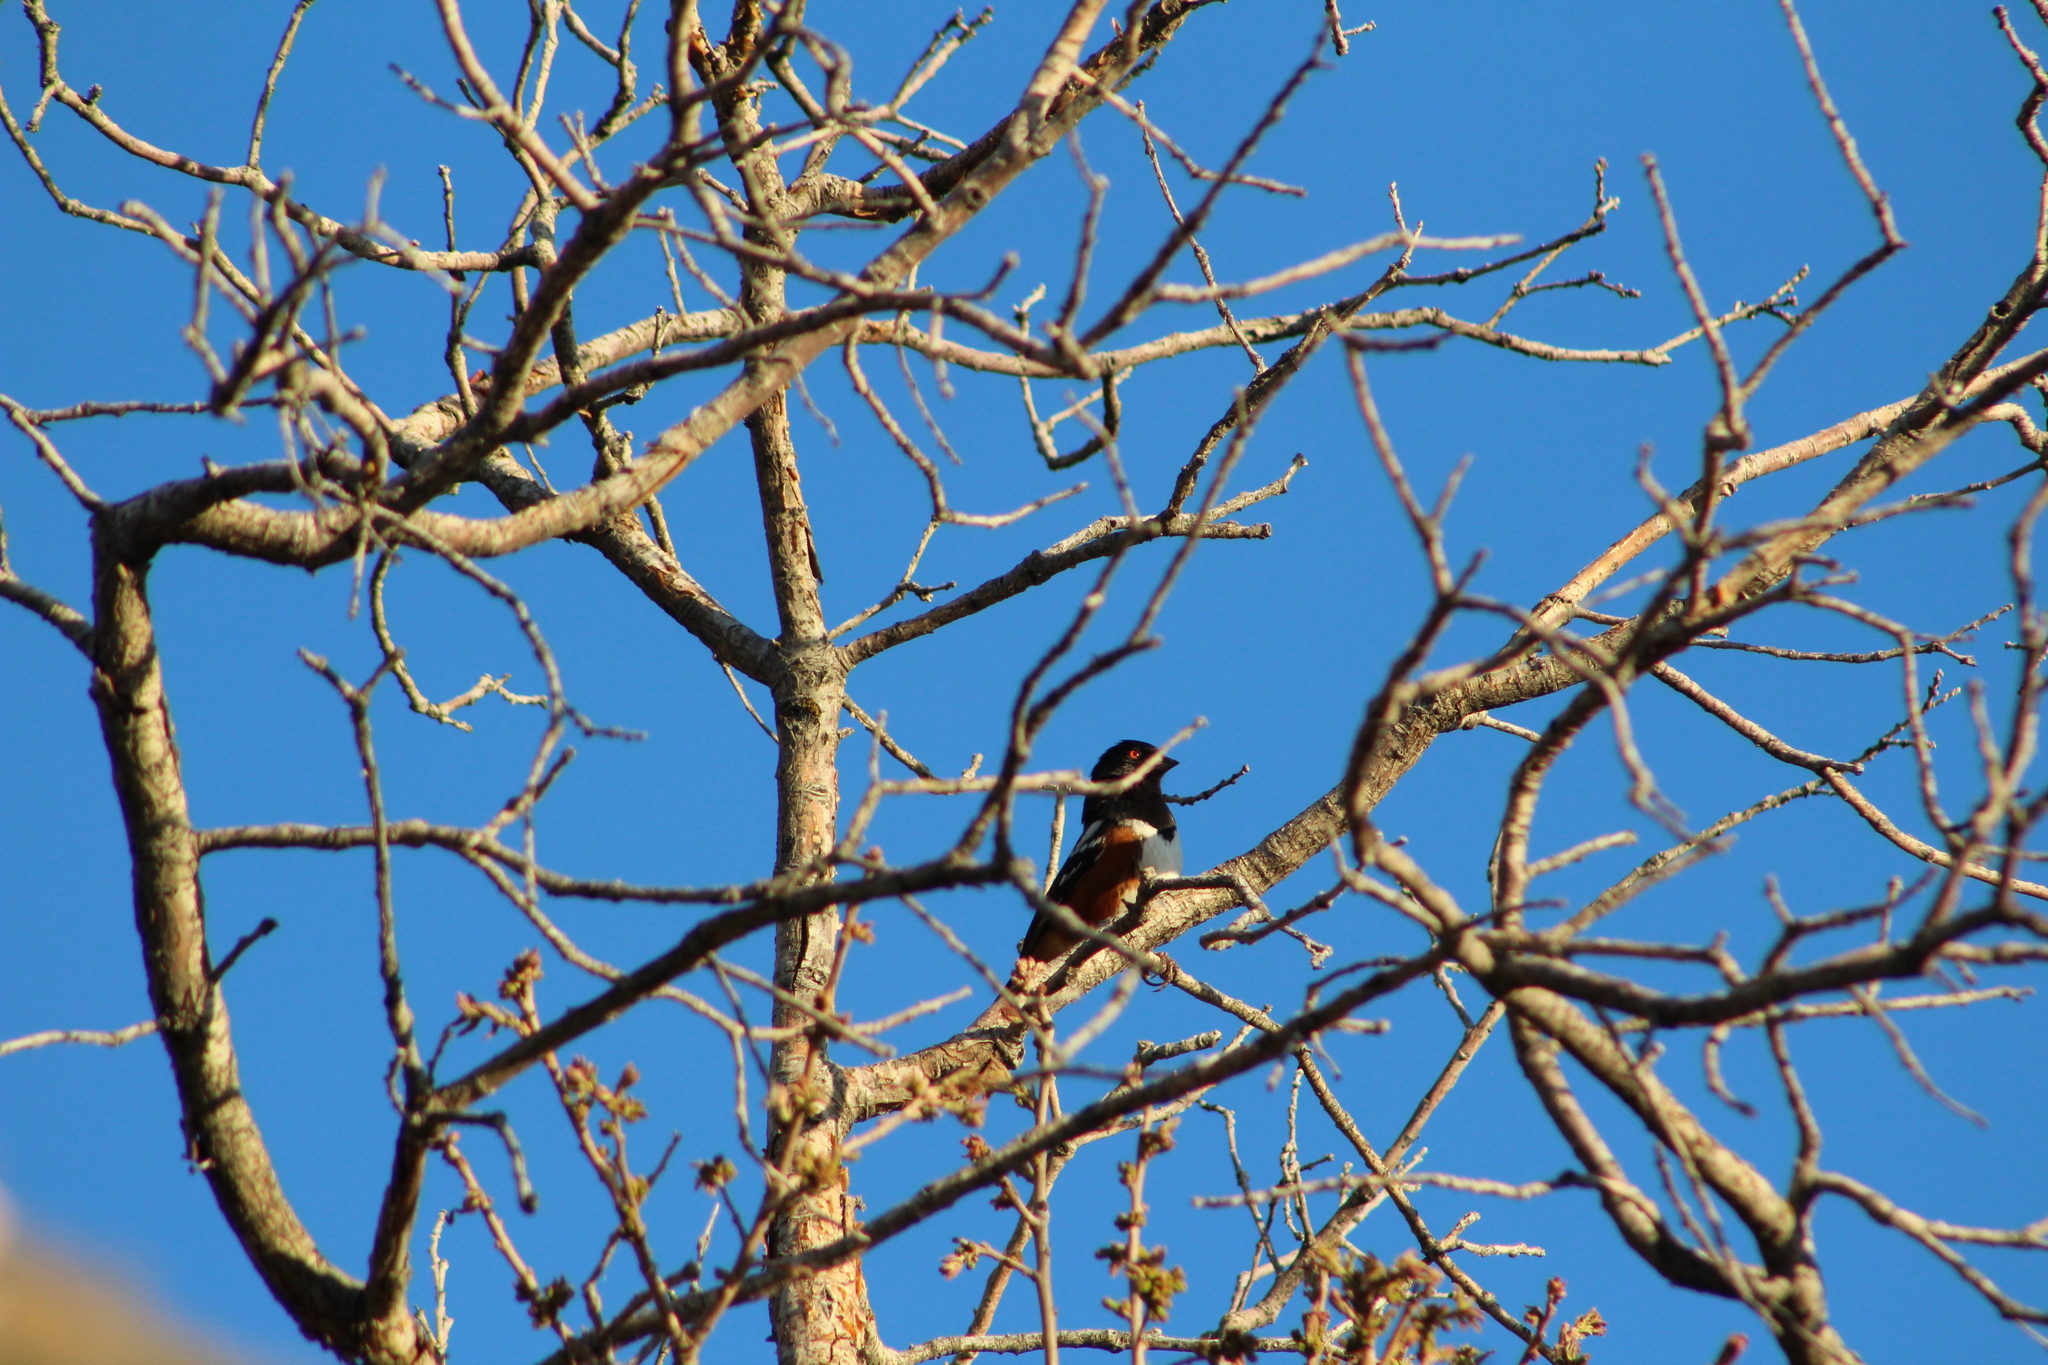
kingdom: Animalia
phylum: Chordata
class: Aves
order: Passeriformes
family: Passerellidae
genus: Pipilo
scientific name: Pipilo maculatus
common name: Spotted towhee
